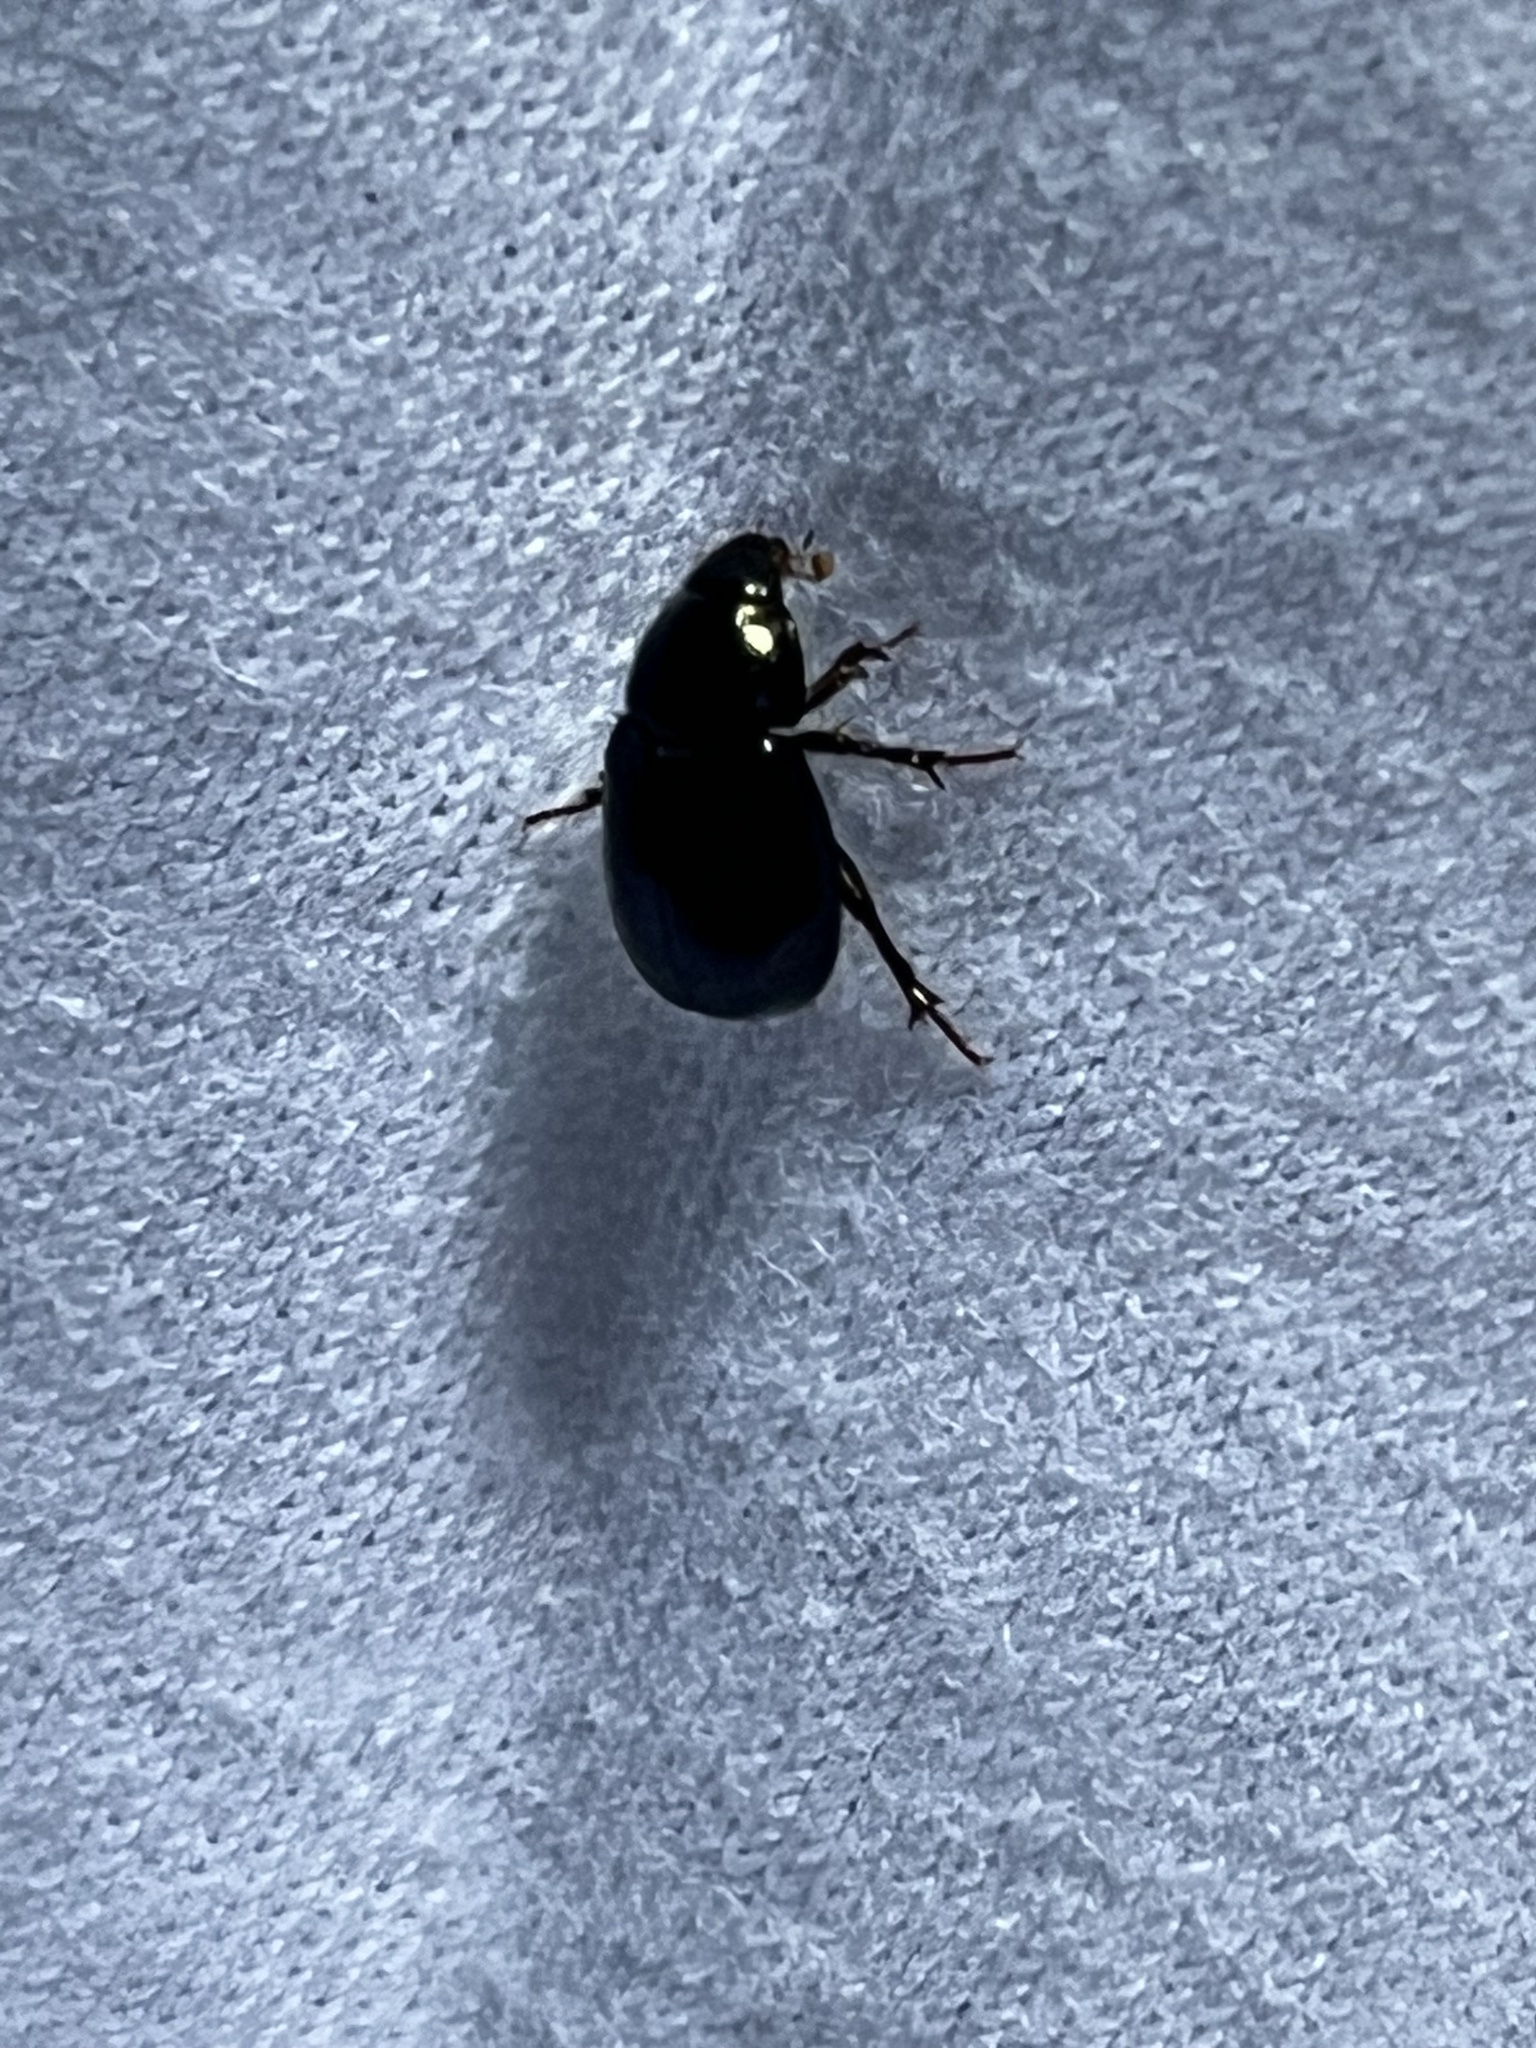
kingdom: Animalia
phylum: Arthropoda
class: Insecta
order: Coleoptera
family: Hybosoridae
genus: Hybosorus
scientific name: Hybosorus illigeri
